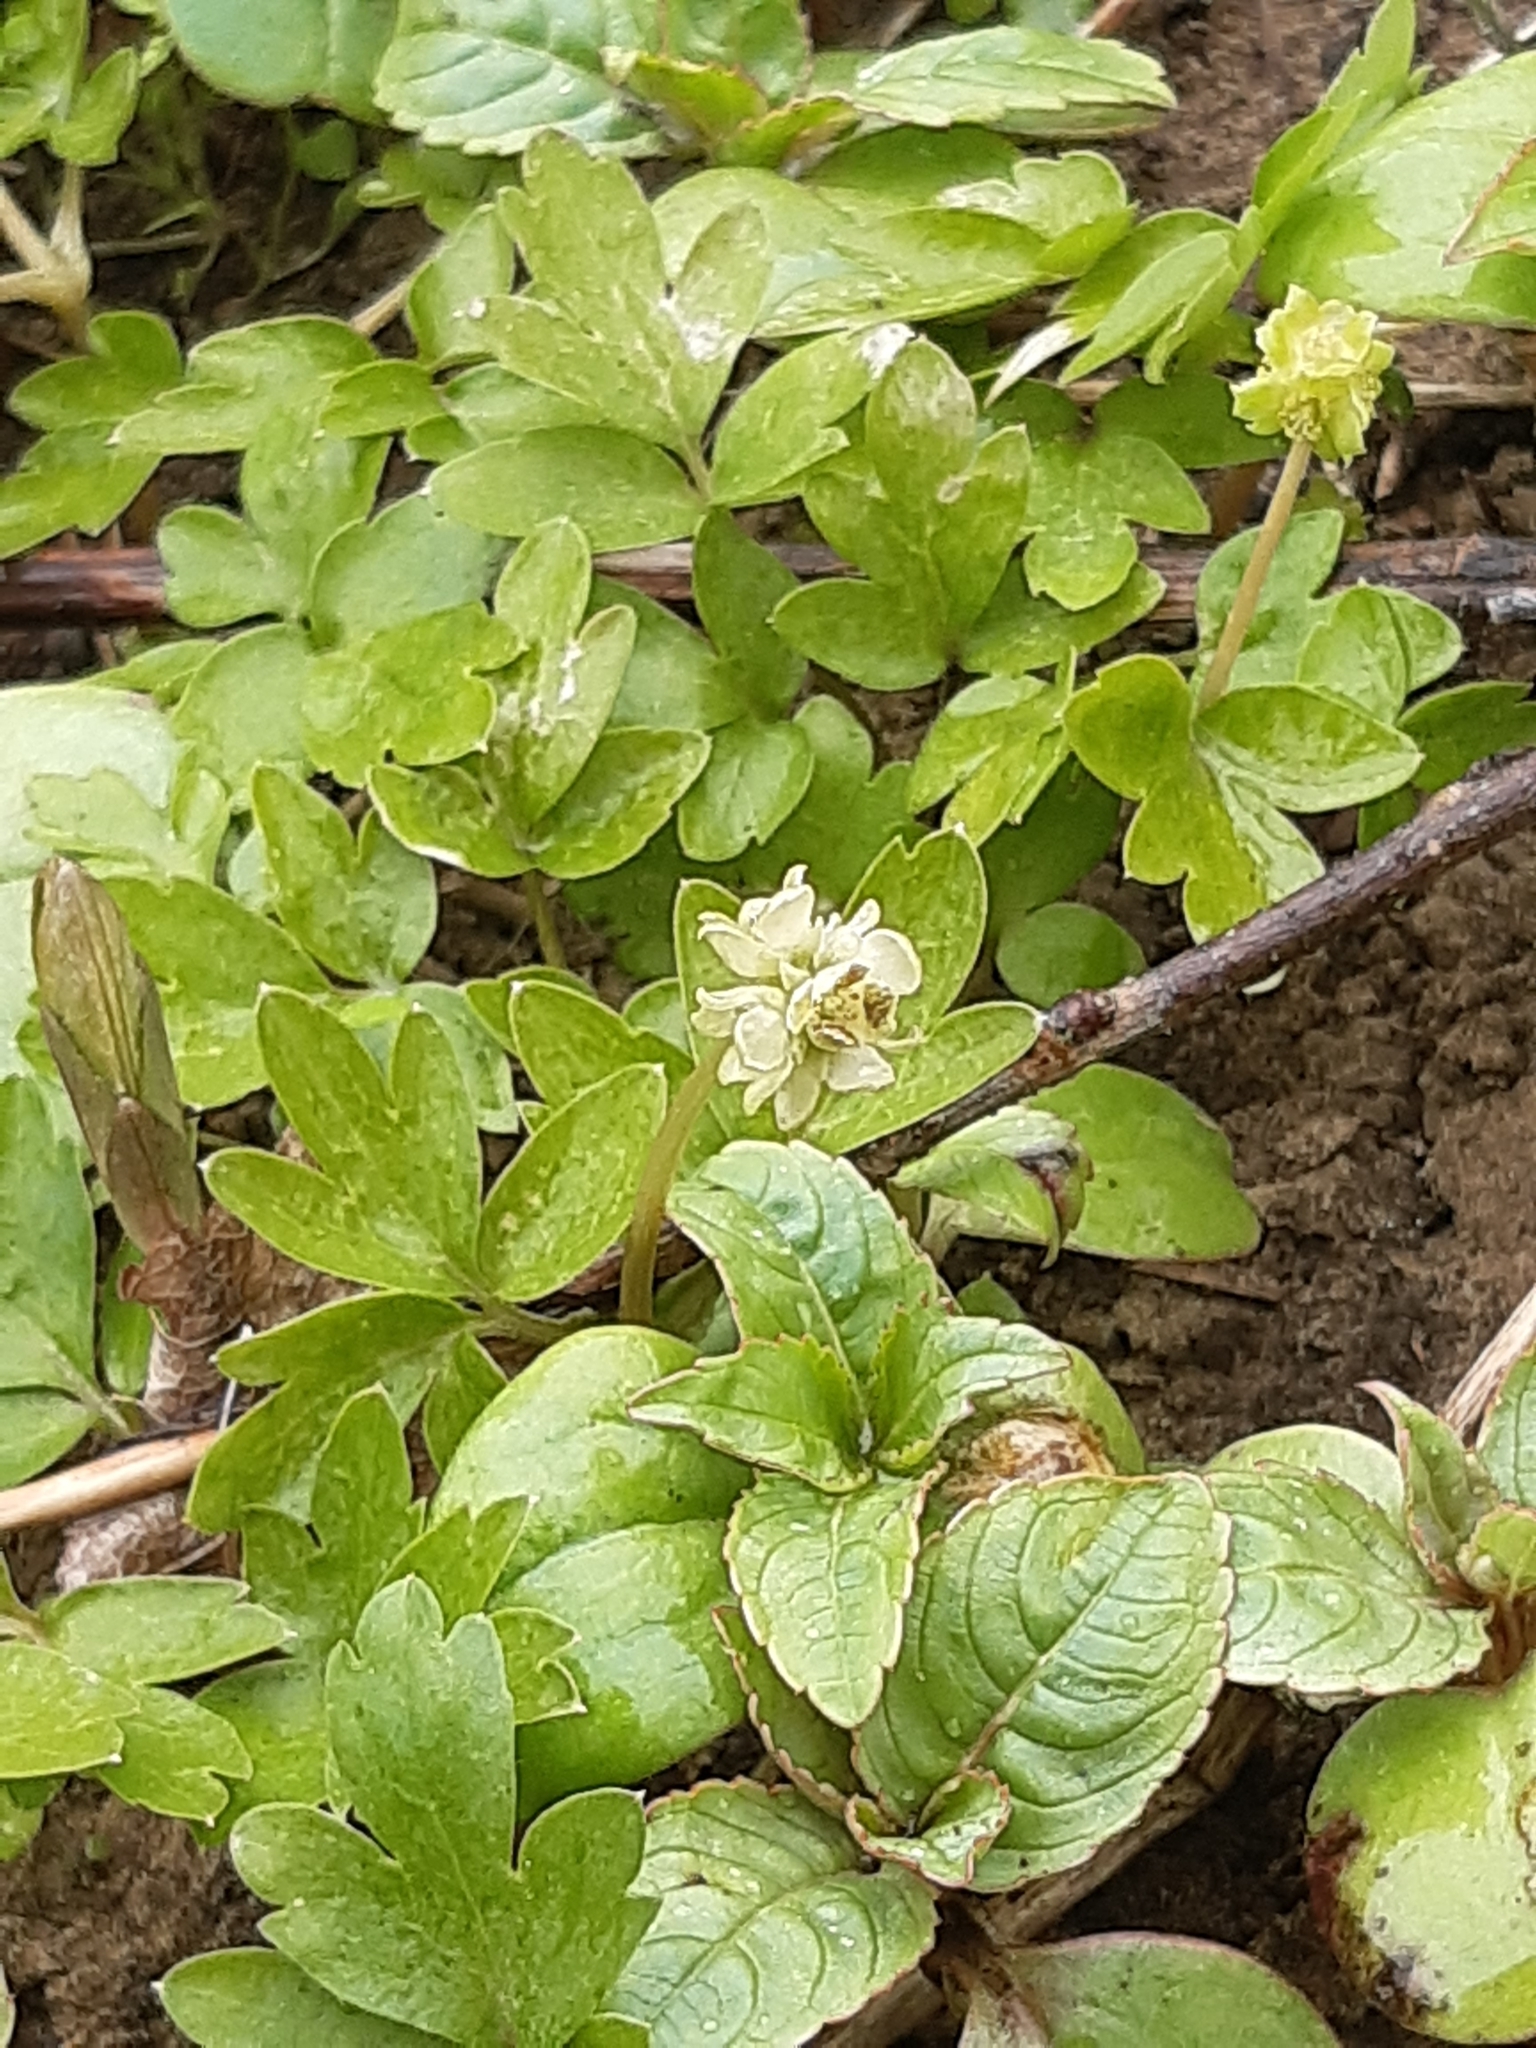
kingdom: Plantae
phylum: Tracheophyta
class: Magnoliopsida
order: Dipsacales
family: Viburnaceae
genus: Adoxa
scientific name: Adoxa moschatellina
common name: Moschatel
